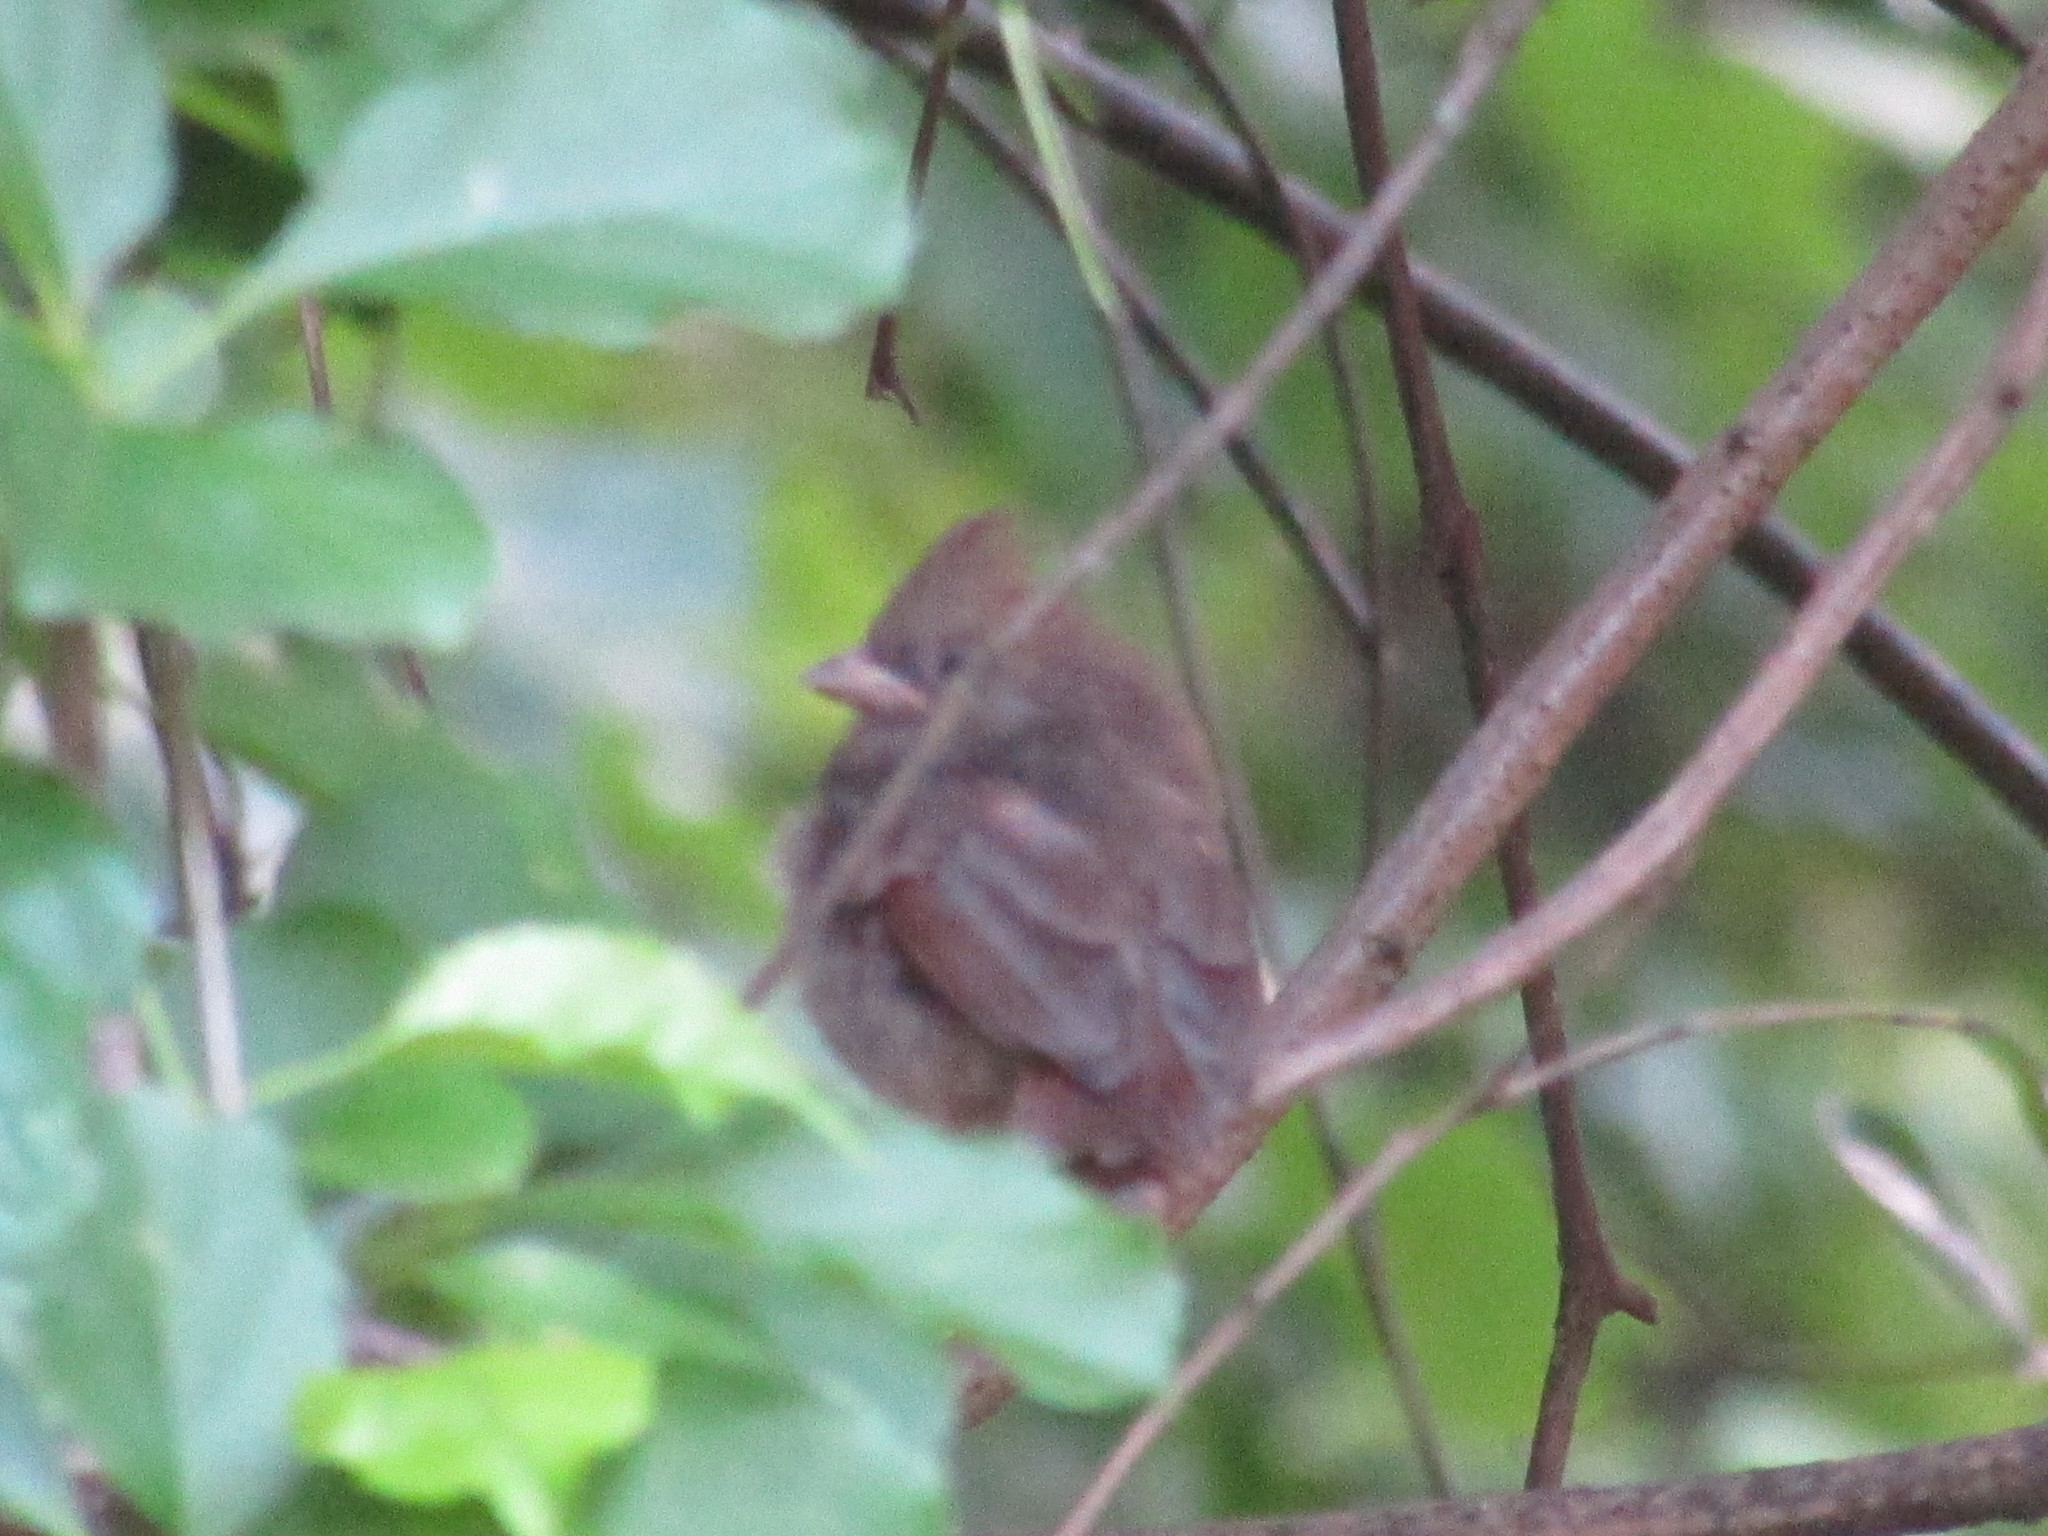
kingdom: Animalia
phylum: Chordata
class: Aves
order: Passeriformes
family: Cardinalidae
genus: Cardinalis
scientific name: Cardinalis cardinalis
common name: Northern cardinal
